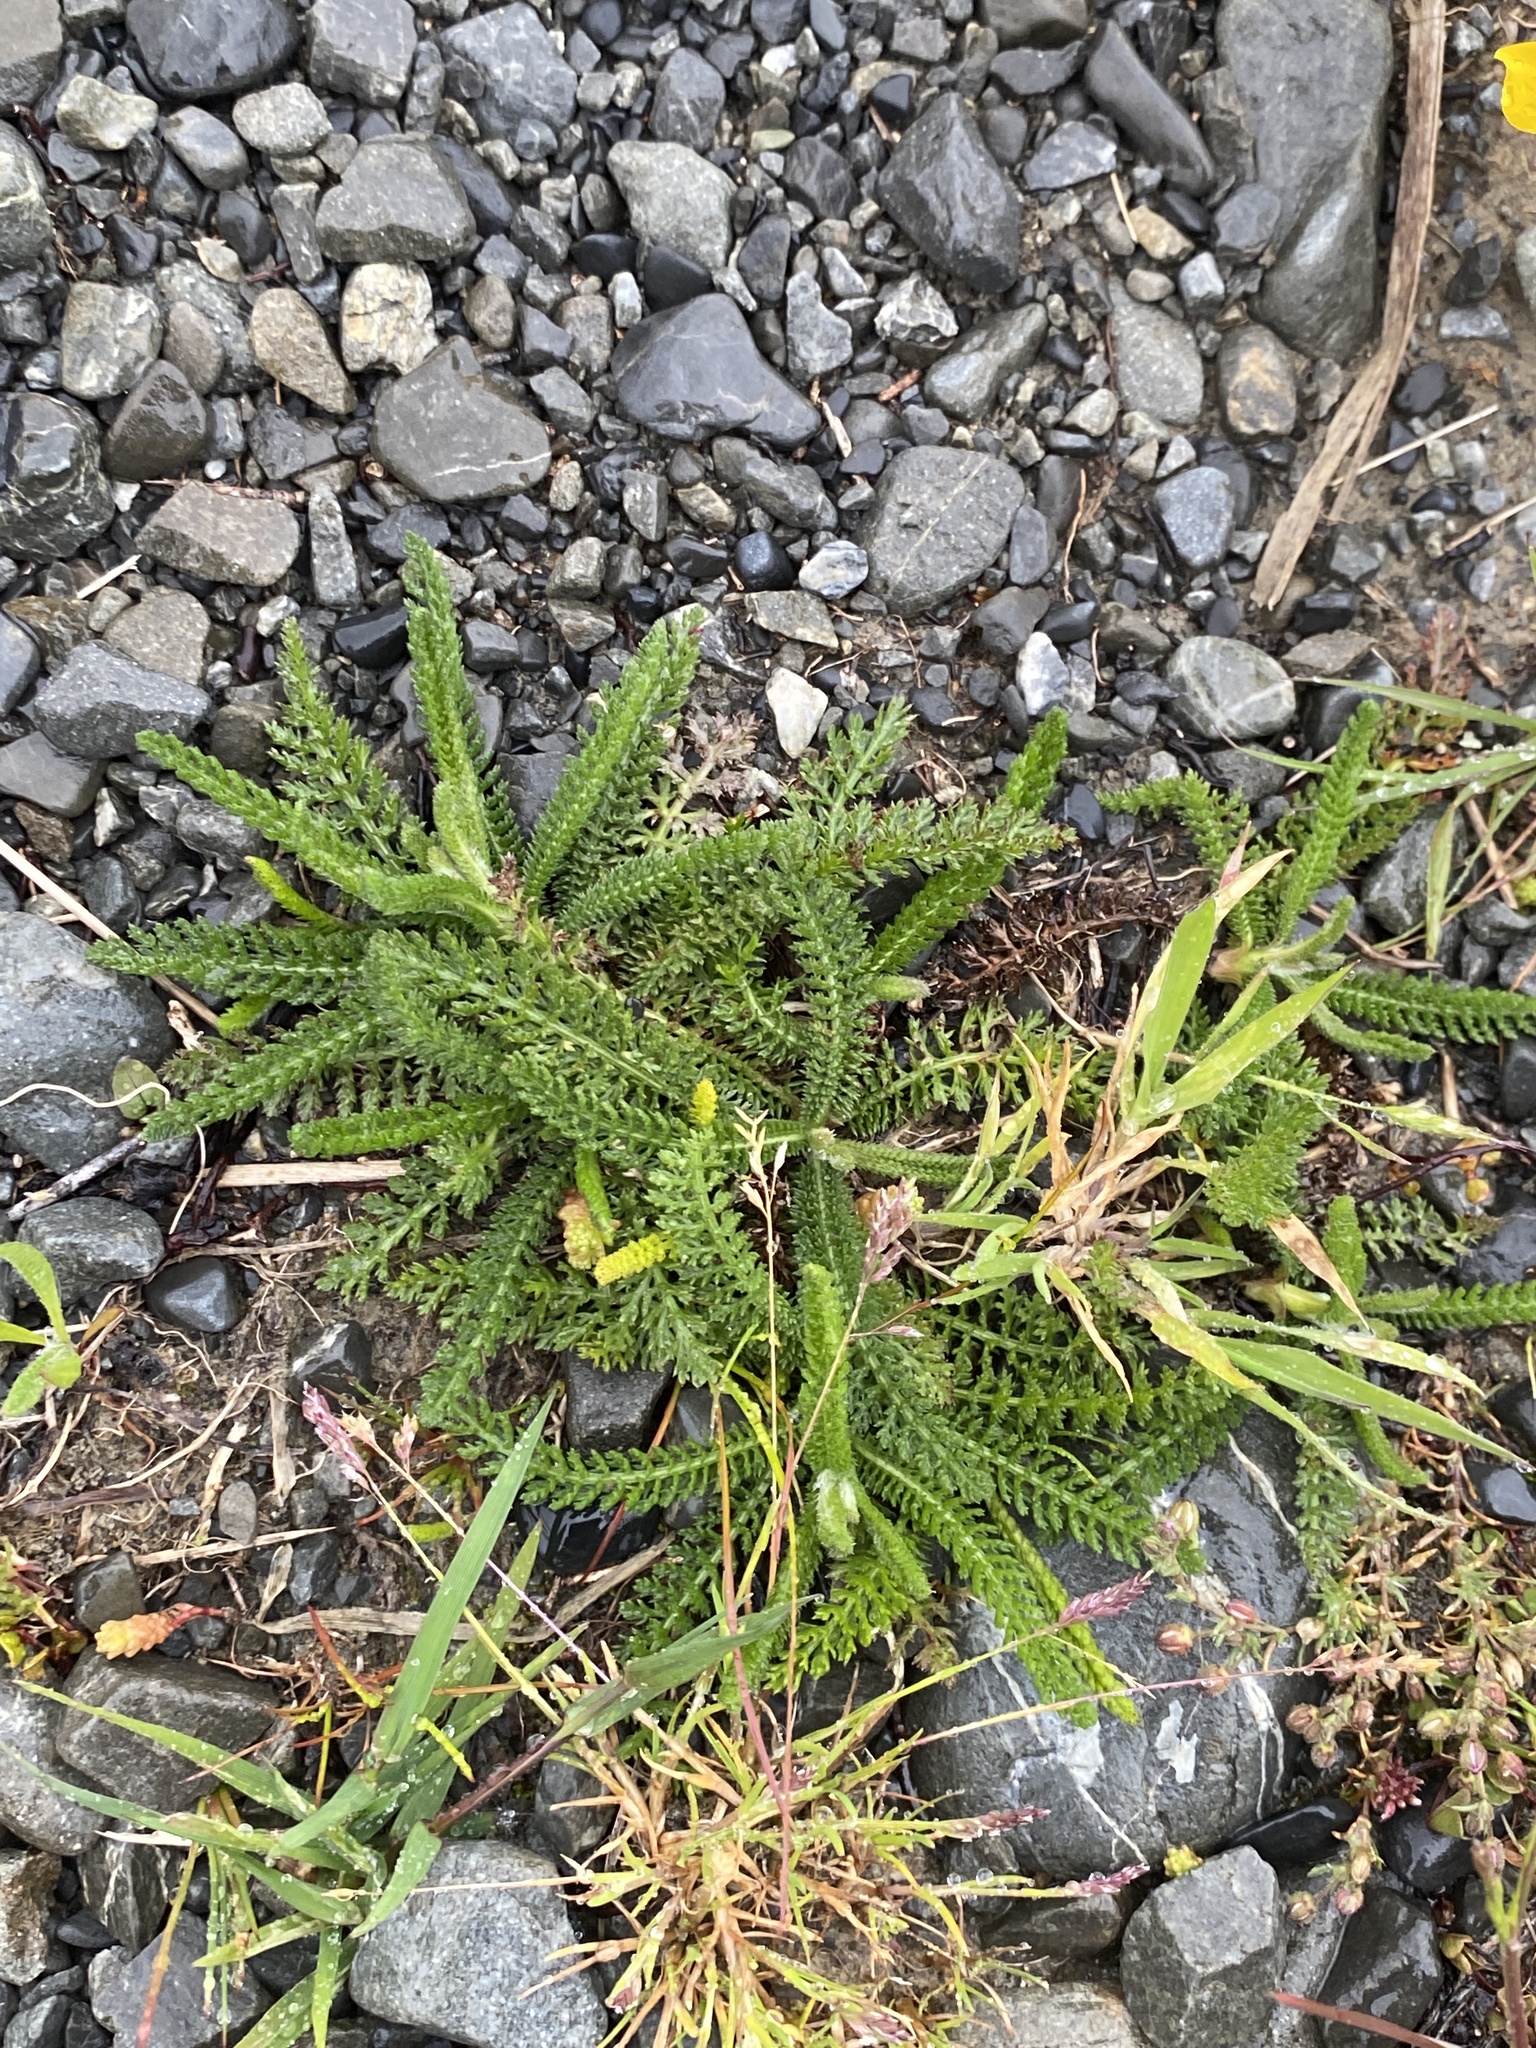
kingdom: Plantae
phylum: Tracheophyta
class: Magnoliopsida
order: Asterales
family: Asteraceae
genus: Achillea
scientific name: Achillea millefolium
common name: Yarrow
